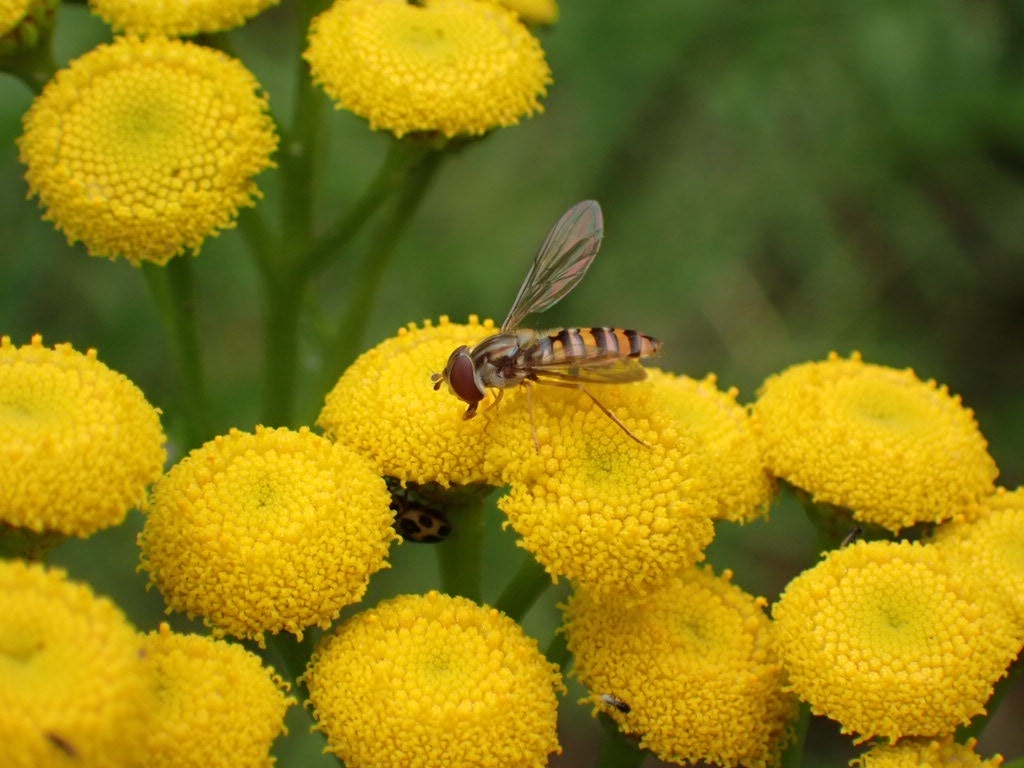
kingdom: Animalia
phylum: Arthropoda
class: Insecta
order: Diptera
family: Syrphidae
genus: Episyrphus
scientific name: Episyrphus balteatus
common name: Marmalade hoverfly
